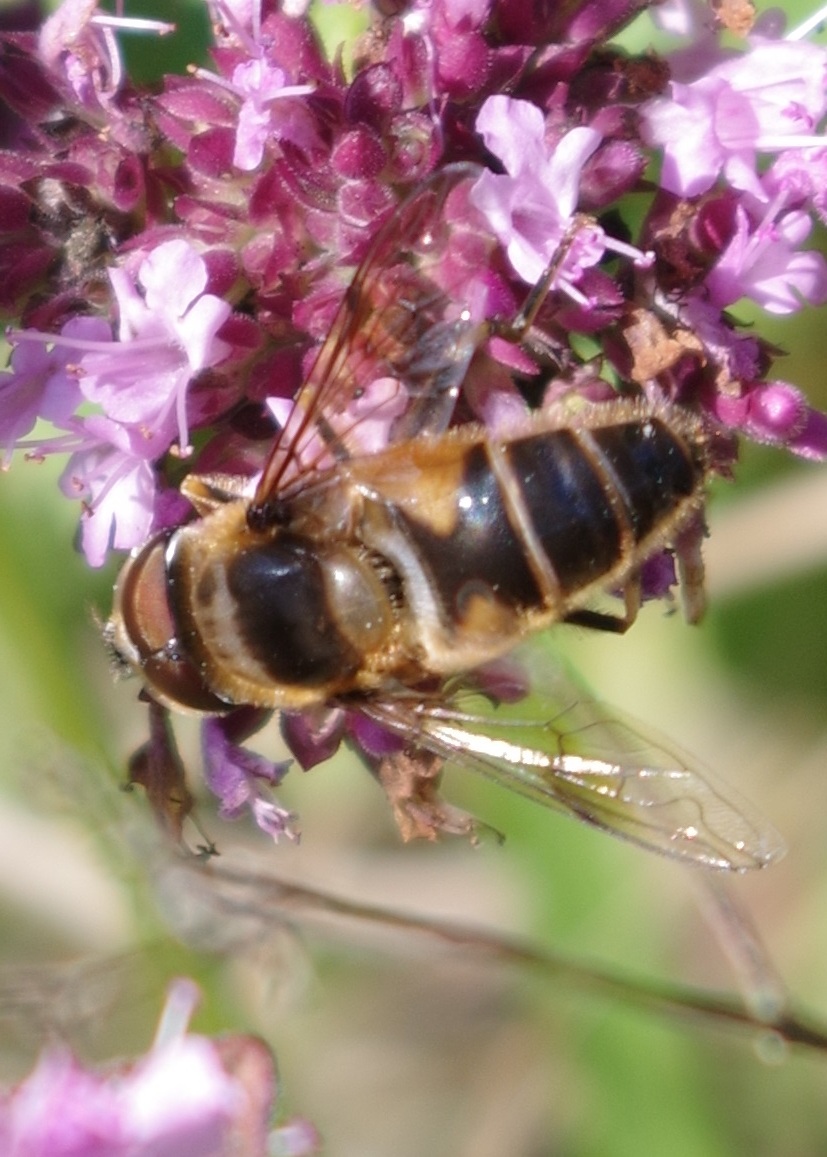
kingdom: Animalia
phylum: Arthropoda
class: Insecta
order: Diptera
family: Syrphidae
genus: Eristalis
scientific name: Eristalis pertinax
